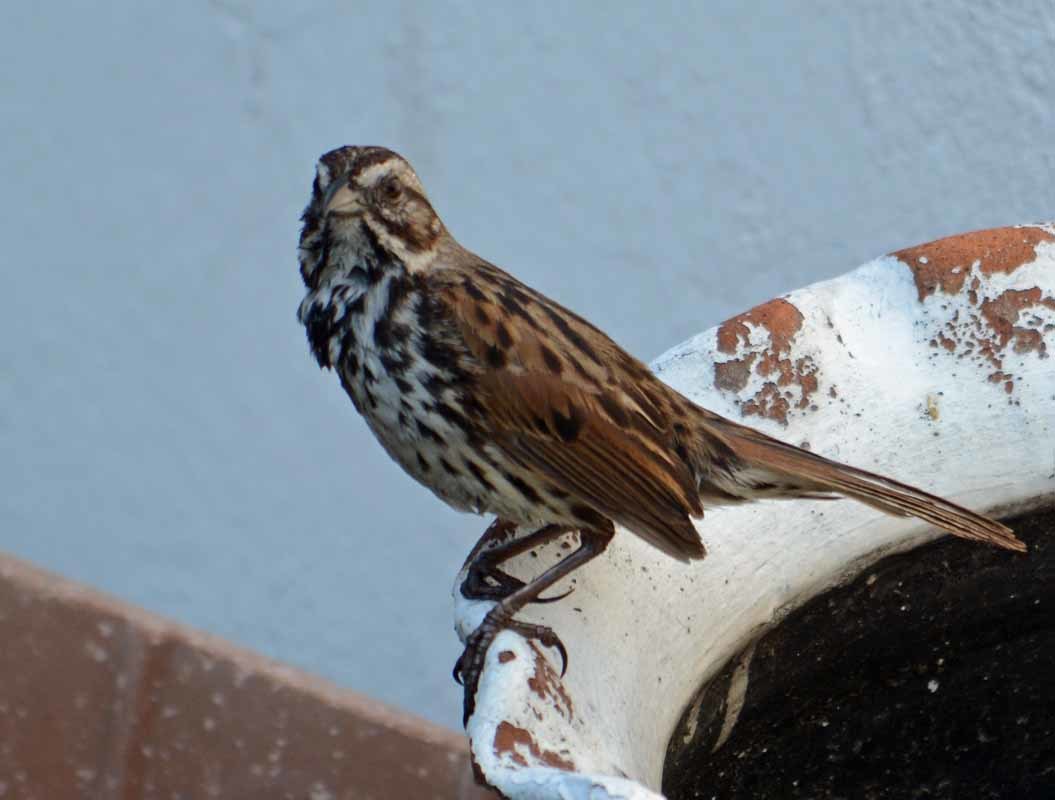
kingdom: Animalia
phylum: Chordata
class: Aves
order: Passeriformes
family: Passerellidae
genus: Melospiza
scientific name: Melospiza melodia
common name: Song sparrow
